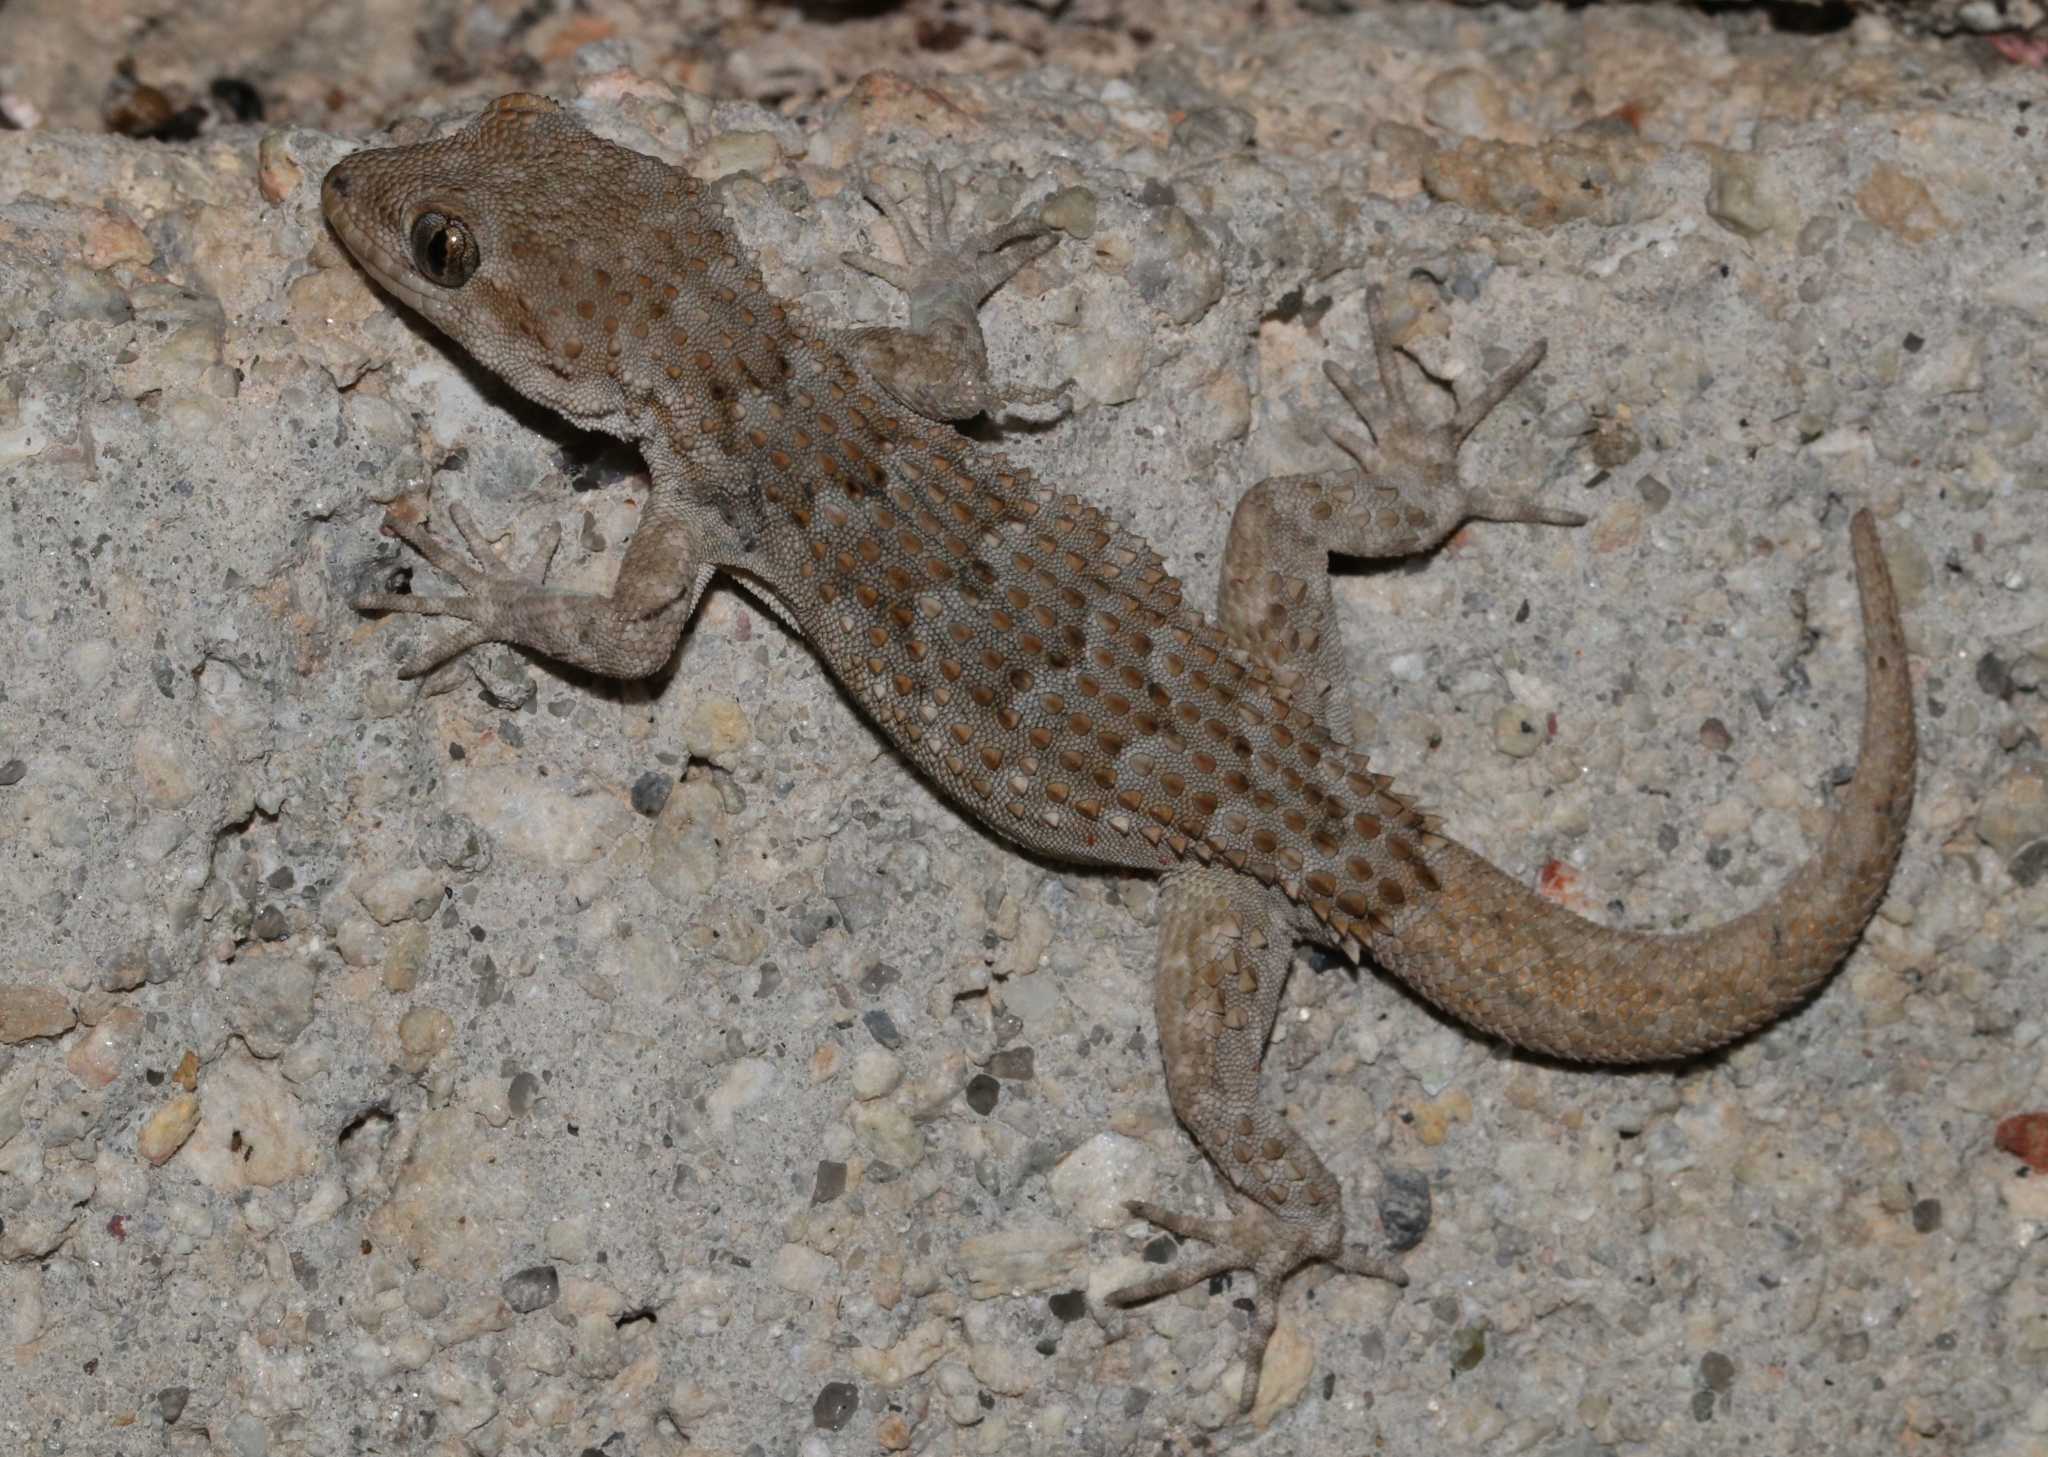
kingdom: Animalia
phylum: Chordata
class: Squamata
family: Gekkonidae
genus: Mediodactylus
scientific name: Mediodactylus kotschyi
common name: Kotschy's gecko
